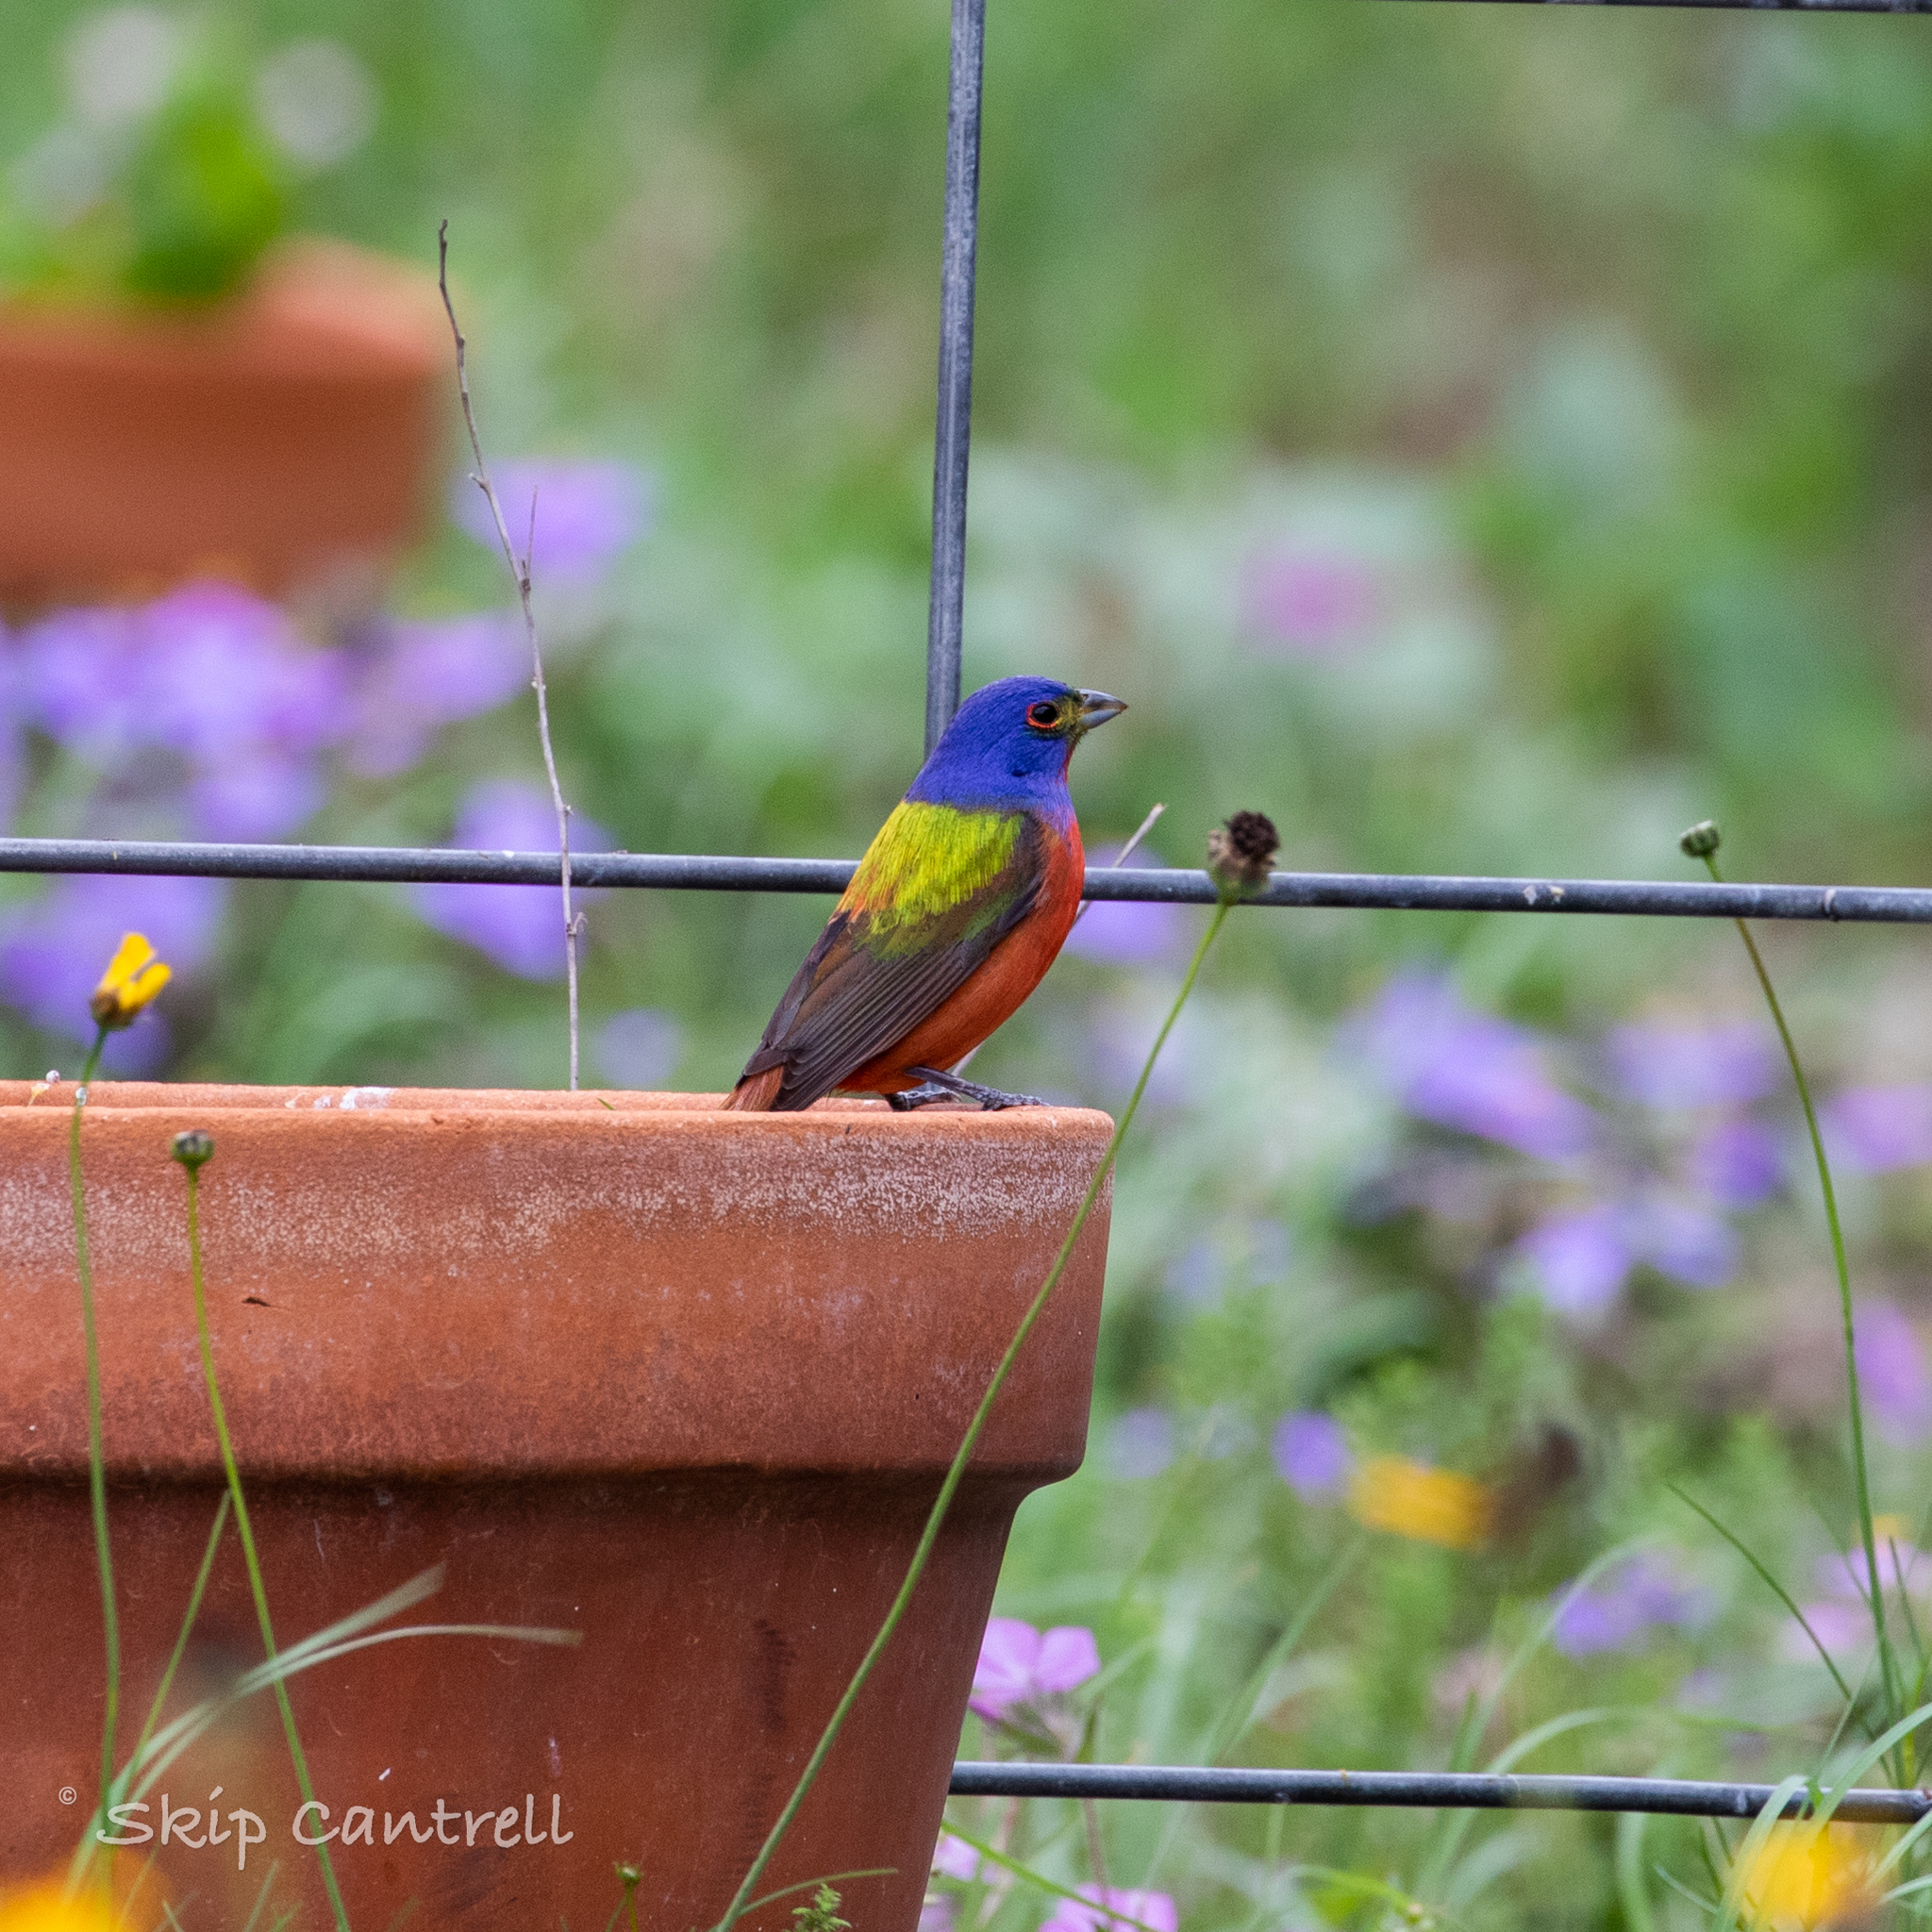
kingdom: Animalia
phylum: Chordata
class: Aves
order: Passeriformes
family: Cardinalidae
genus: Passerina
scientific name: Passerina ciris
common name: Painted bunting
